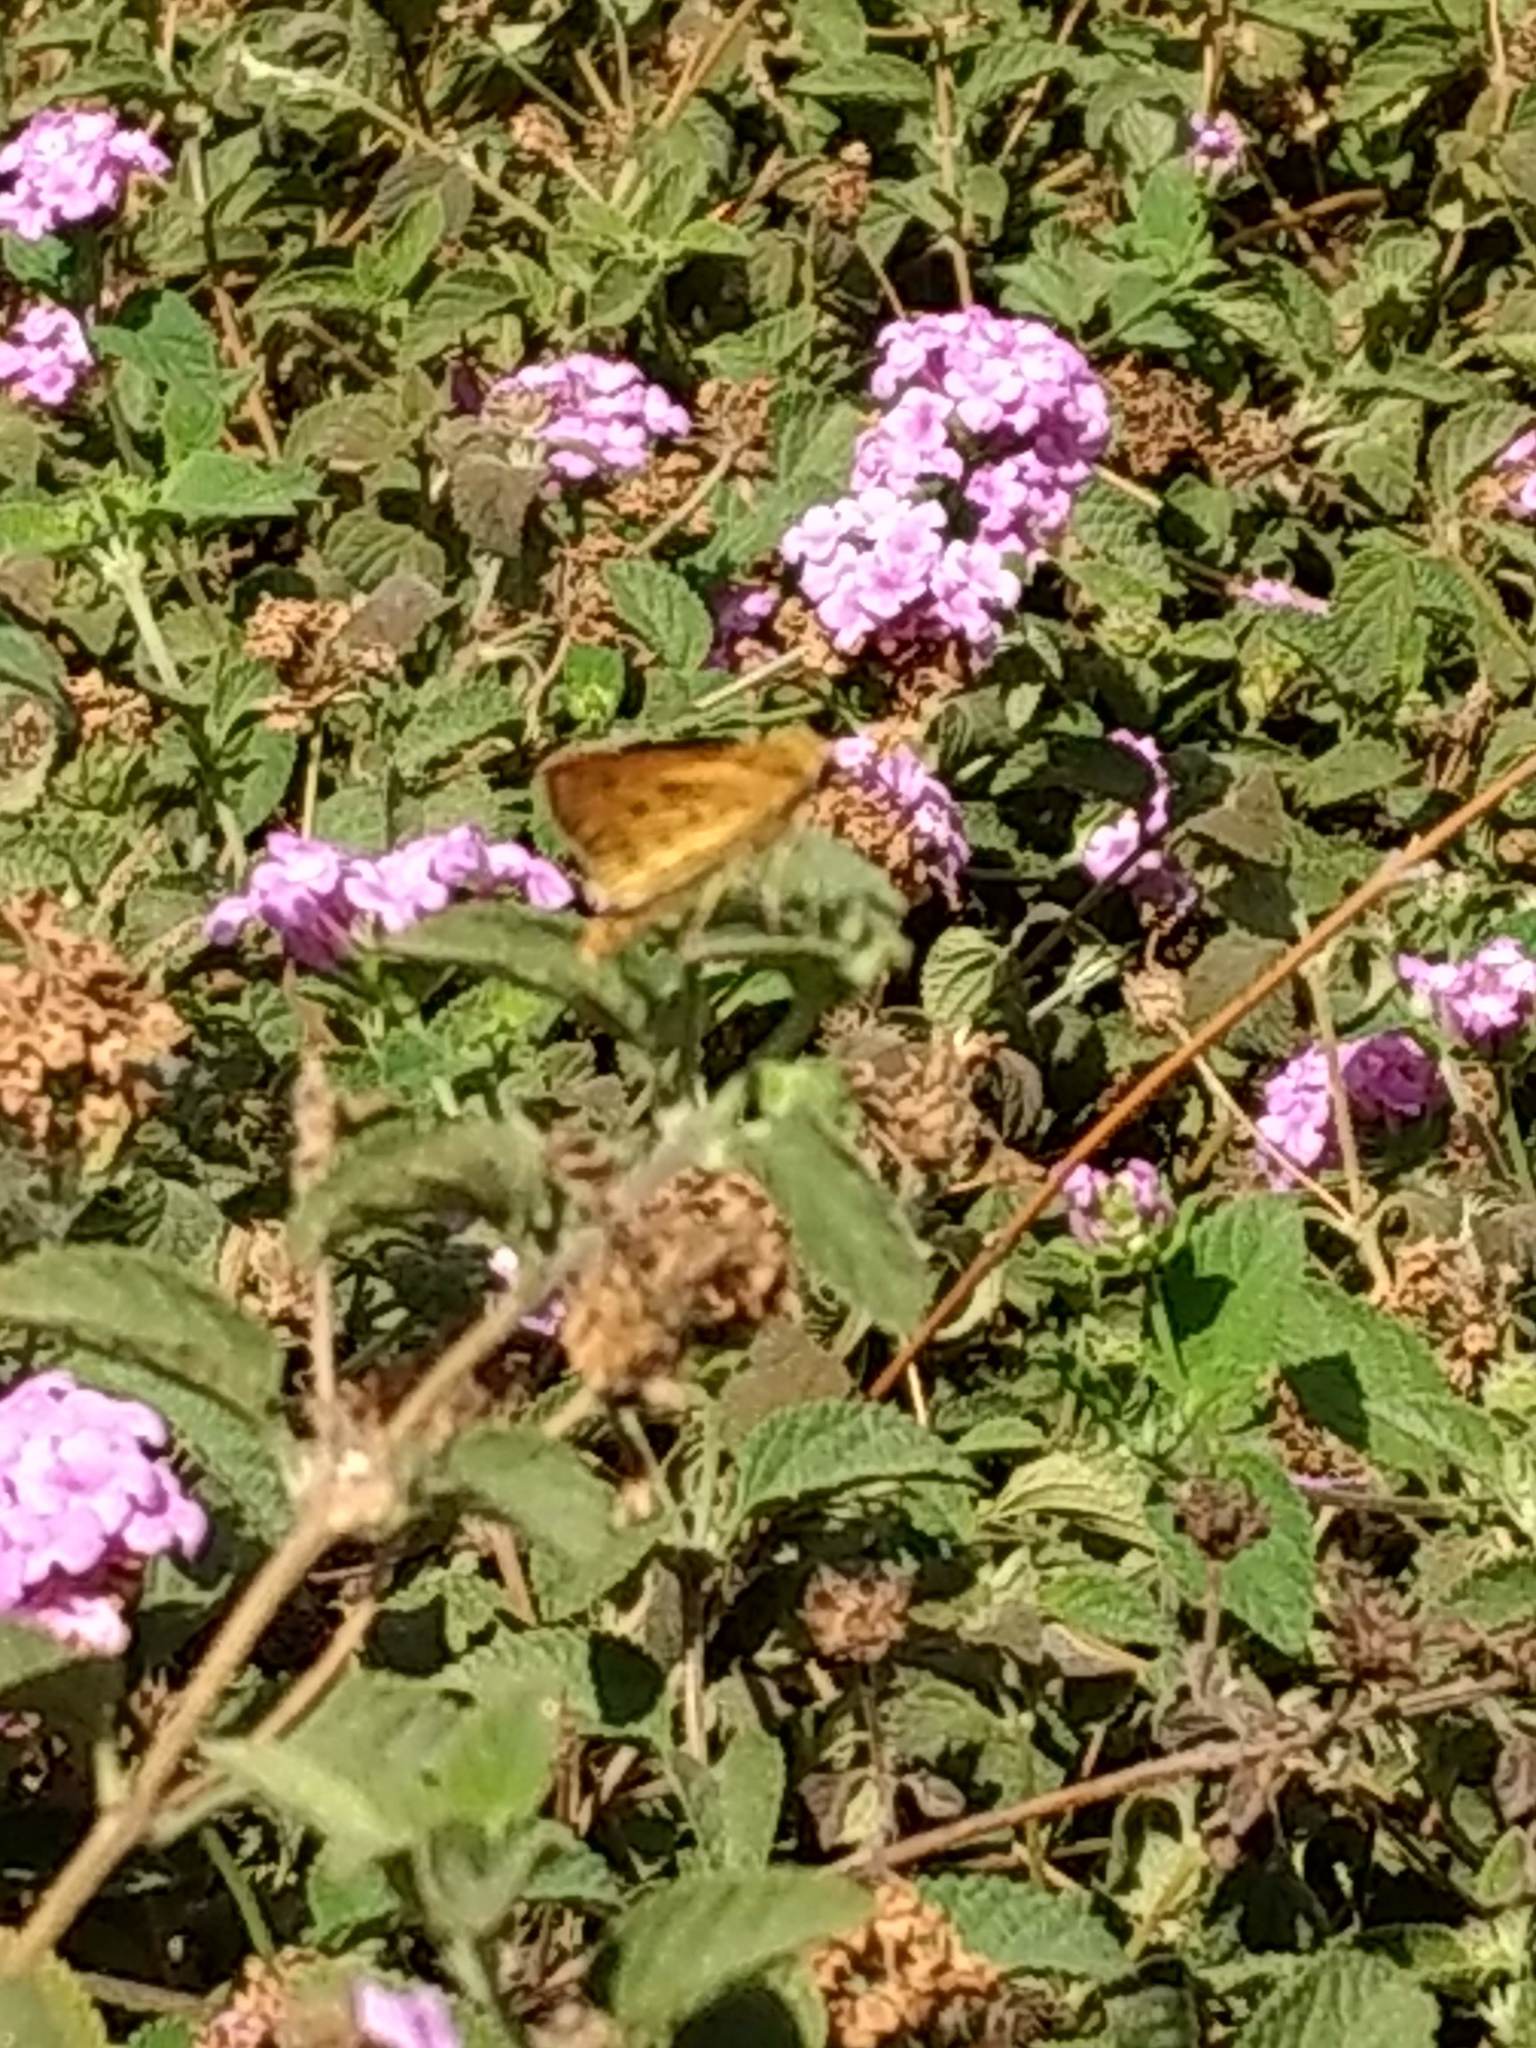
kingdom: Animalia
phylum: Arthropoda
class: Insecta
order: Lepidoptera
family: Hesperiidae
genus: Hylephila
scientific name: Hylephila phyleus
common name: Fiery skipper
